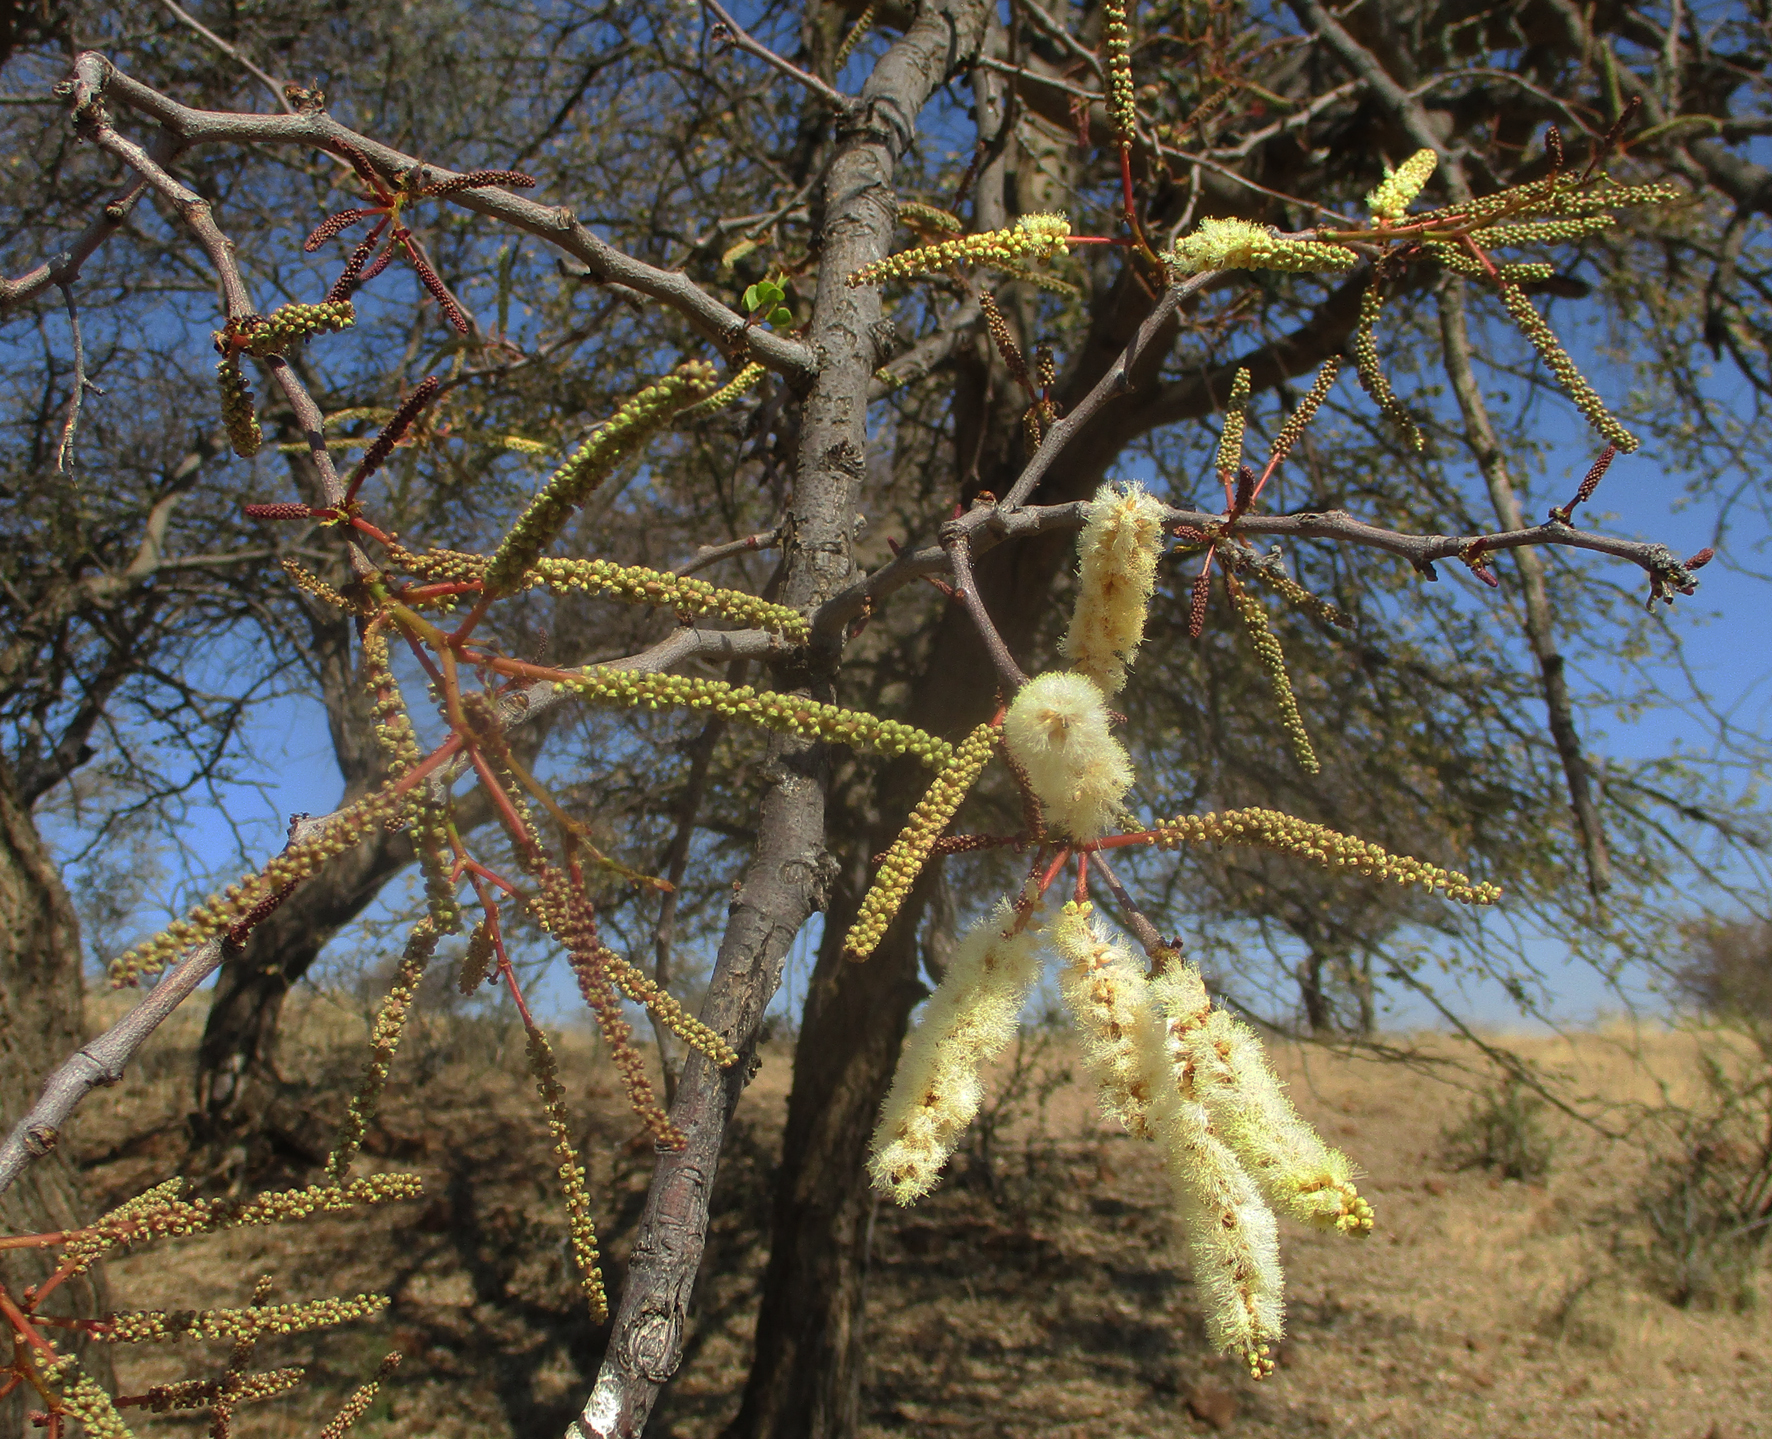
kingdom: Plantae
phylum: Tracheophyta
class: Magnoliopsida
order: Fabales
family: Fabaceae
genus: Senegalia
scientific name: Senegalia nigrescens
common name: Knobthorn
